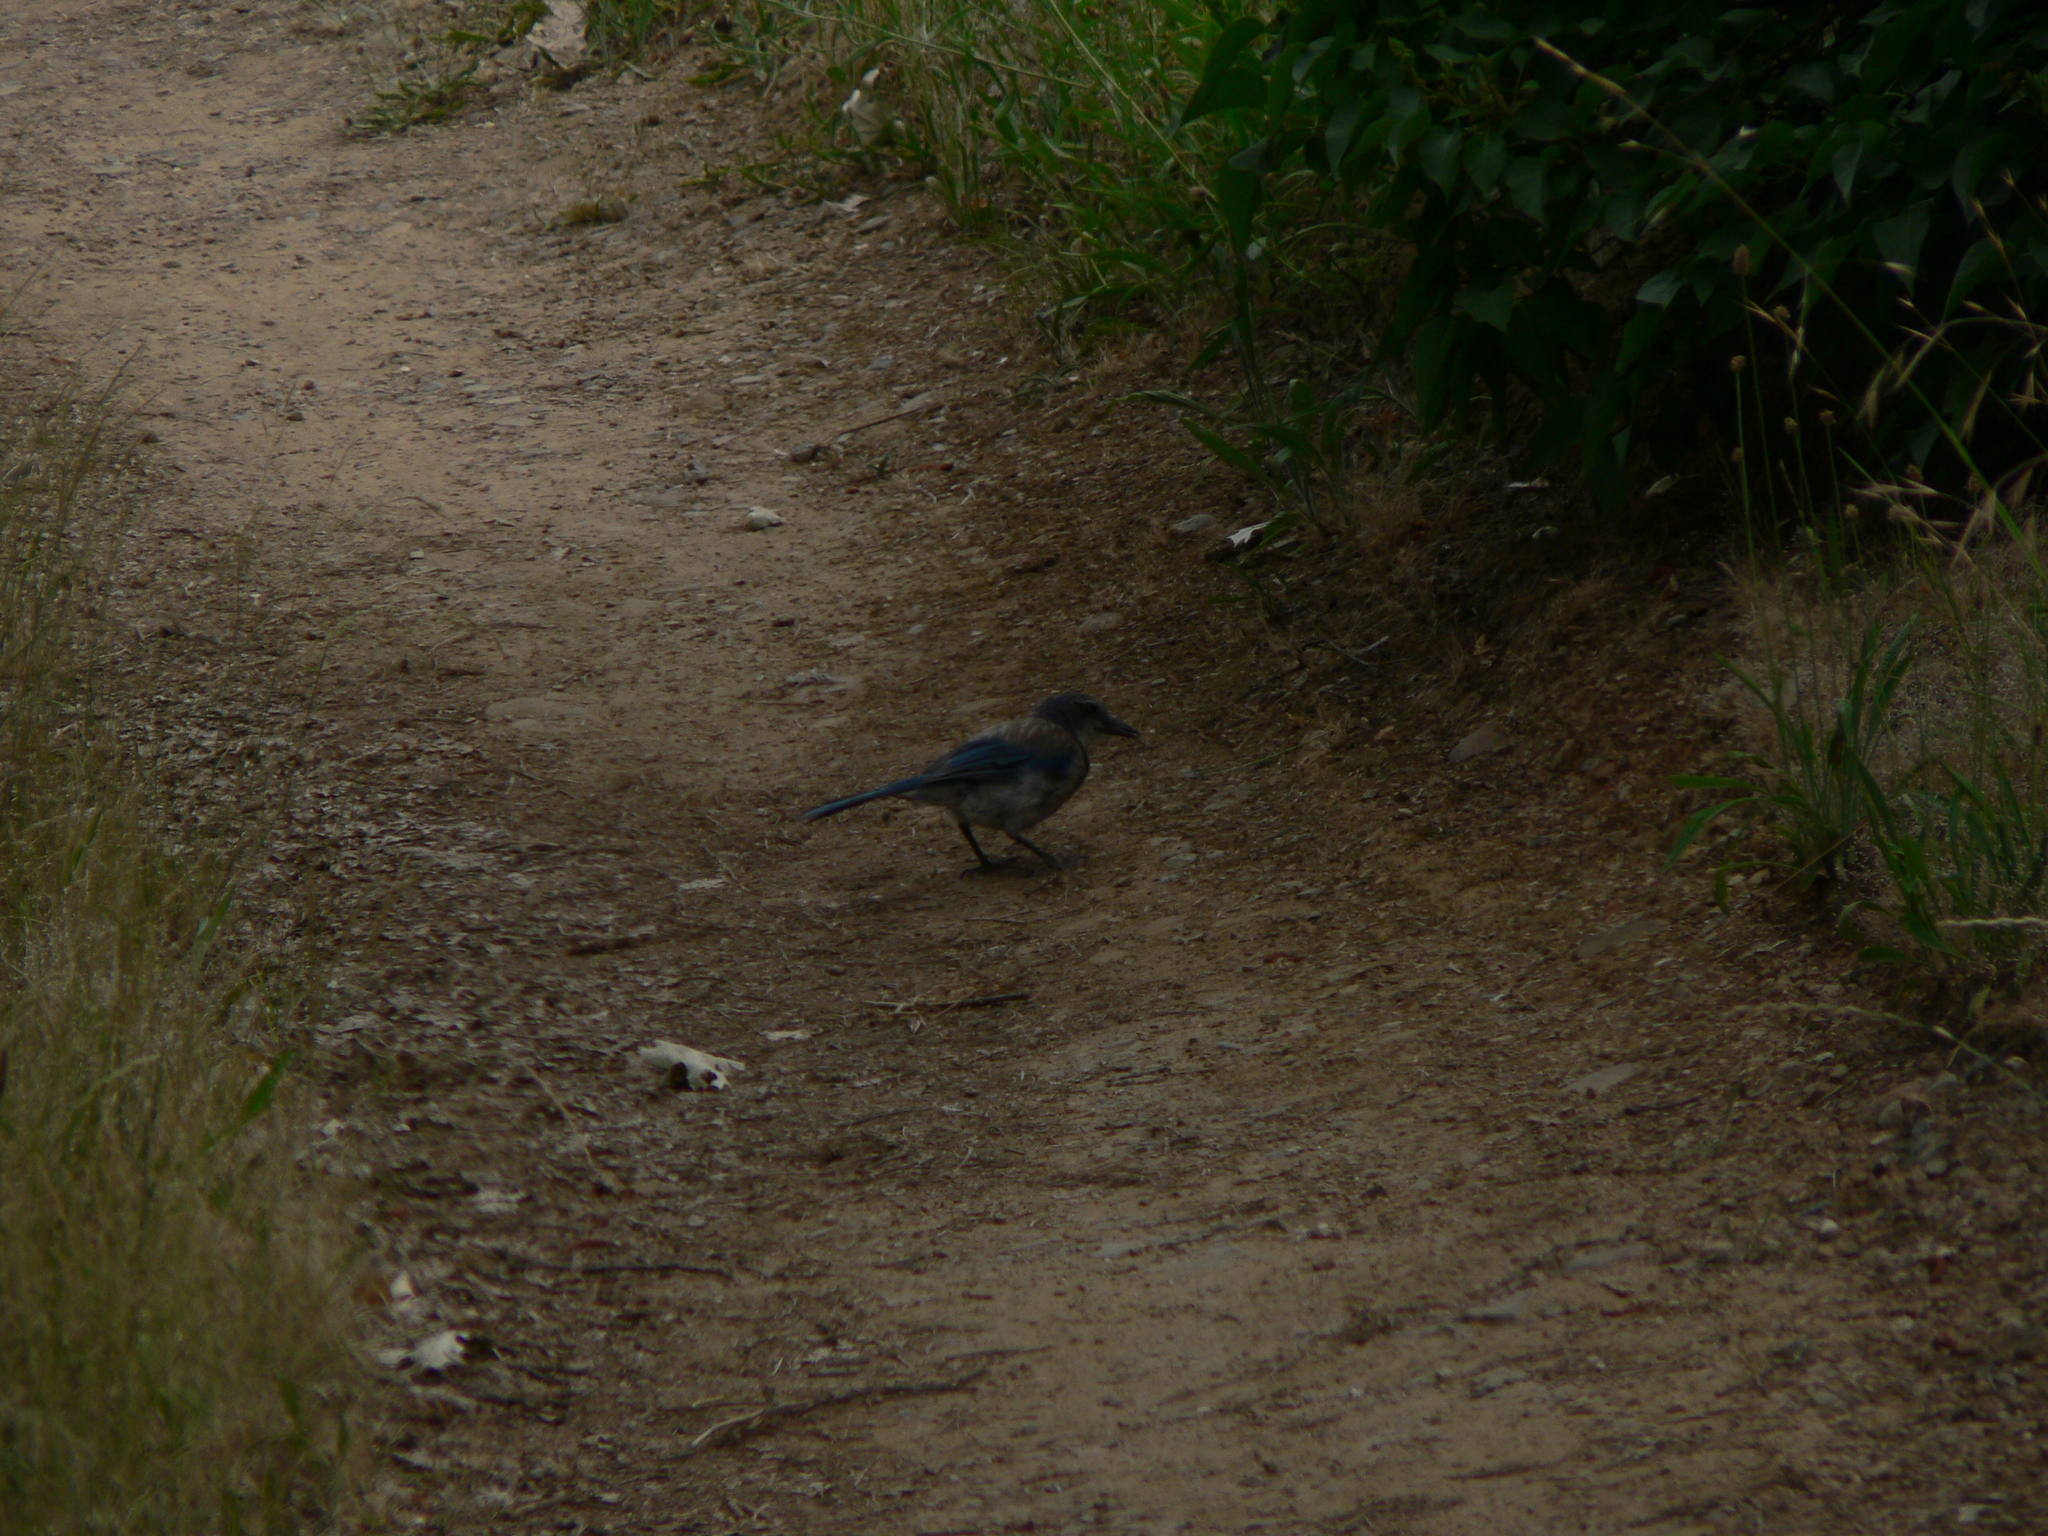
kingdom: Animalia
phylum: Chordata
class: Aves
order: Passeriformes
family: Corvidae
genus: Aphelocoma
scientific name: Aphelocoma californica
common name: California scrub-jay
